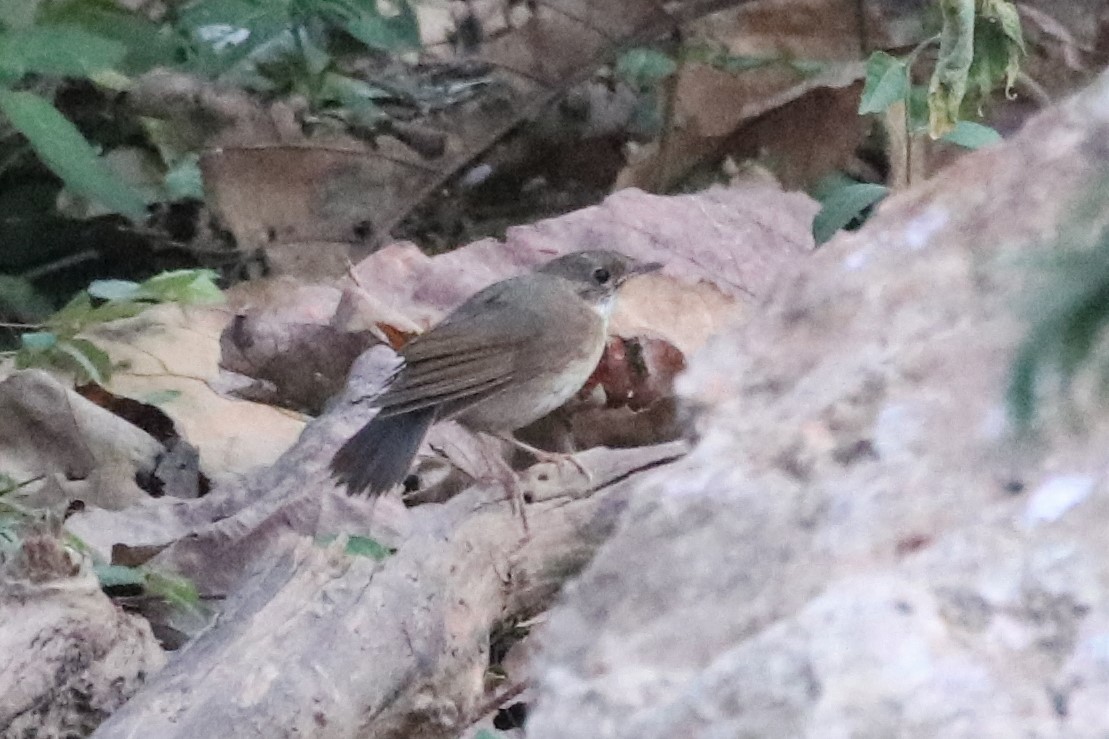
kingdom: Animalia
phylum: Chordata
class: Aves
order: Passeriformes
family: Muscicapidae
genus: Luscinia
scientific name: Luscinia cyane
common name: Siberian blue robin
